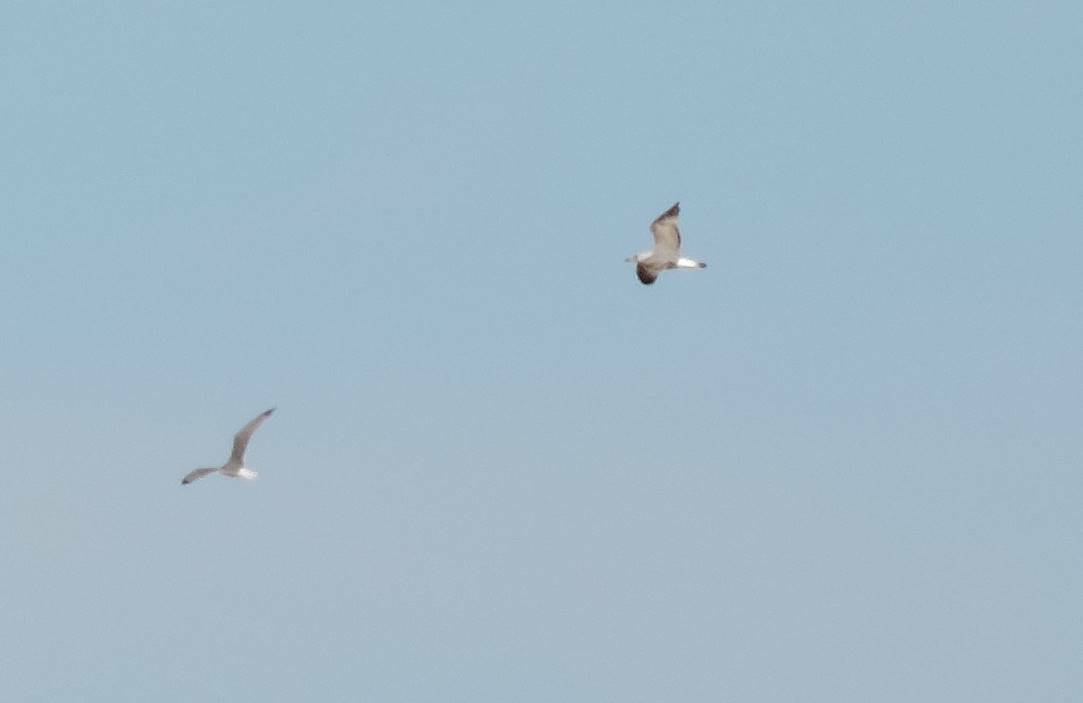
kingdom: Animalia
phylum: Chordata
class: Aves
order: Charadriiformes
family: Laridae
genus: Larus
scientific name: Larus michahellis
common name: Yellow-legged gull
